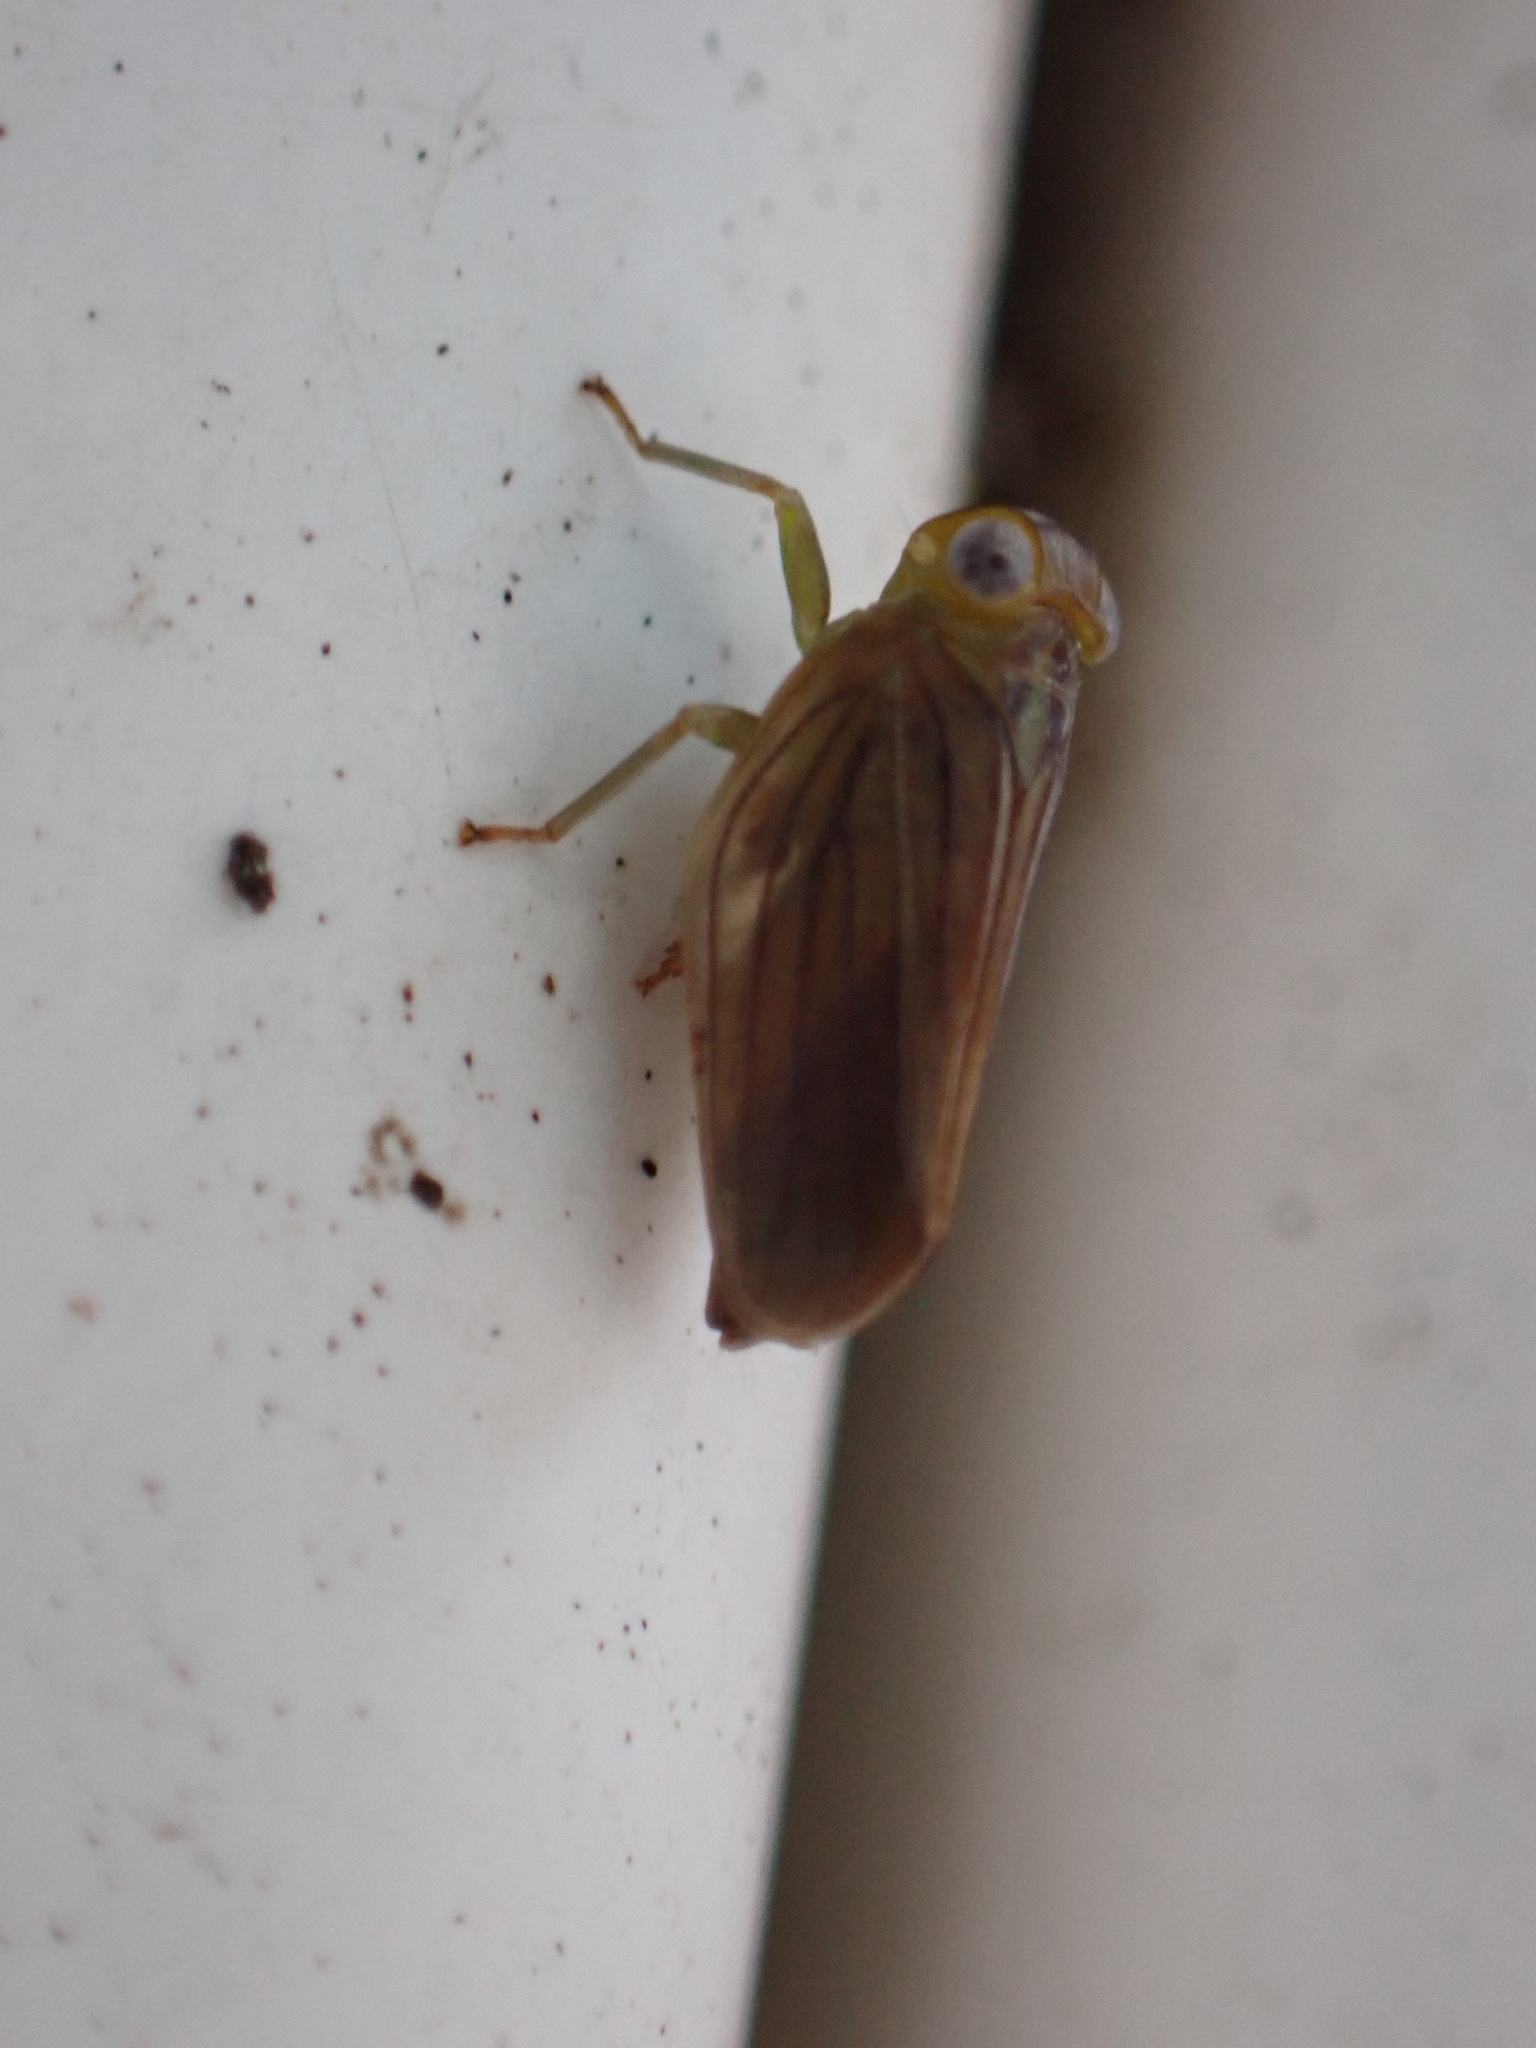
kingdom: Animalia
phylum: Arthropoda
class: Insecta
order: Hemiptera
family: Issidae
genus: Aplos
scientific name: Aplos simplex
